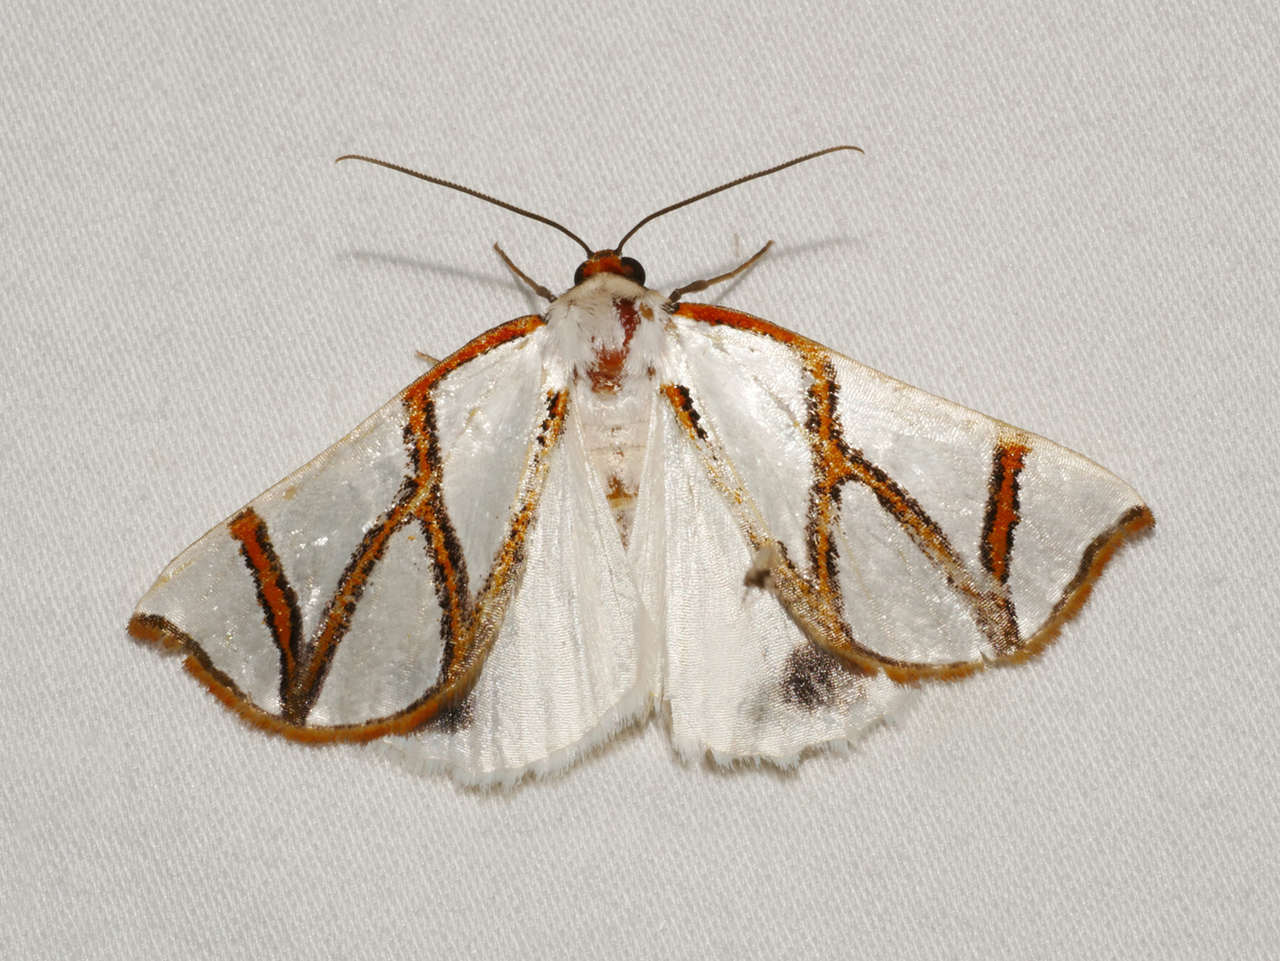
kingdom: Animalia
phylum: Arthropoda
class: Insecta
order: Lepidoptera
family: Geometridae
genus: Thalaina
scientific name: Thalaina clara
